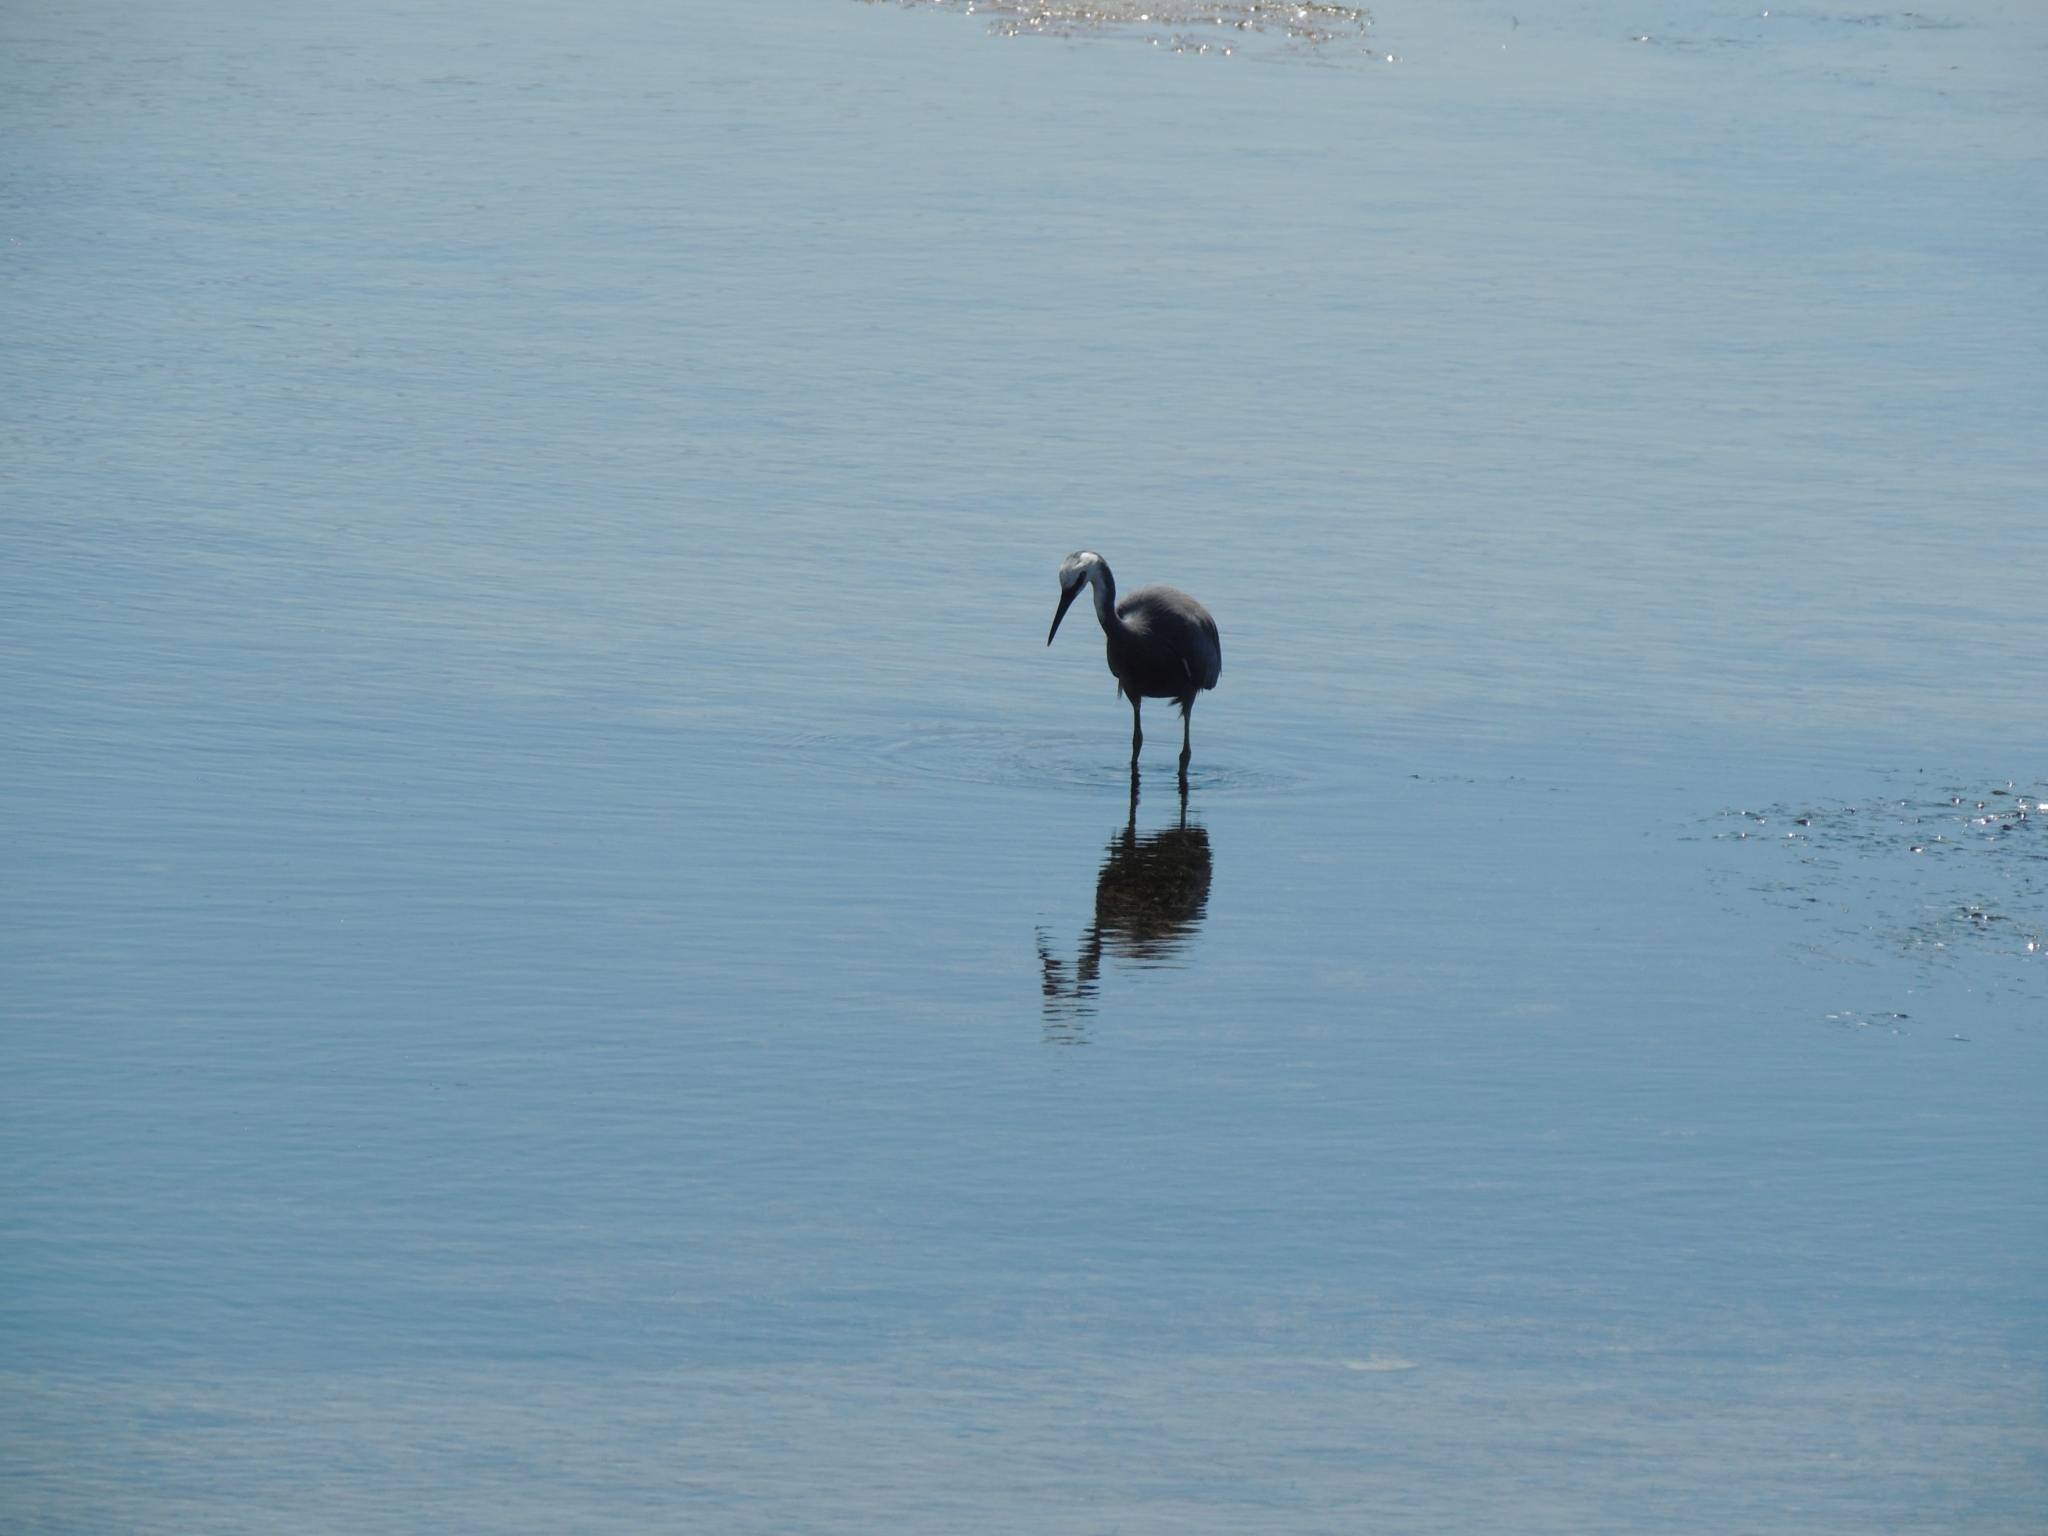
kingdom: Animalia
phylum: Chordata
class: Aves
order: Pelecaniformes
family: Ardeidae
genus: Egretta
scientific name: Egretta novaehollandiae
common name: White-faced heron
